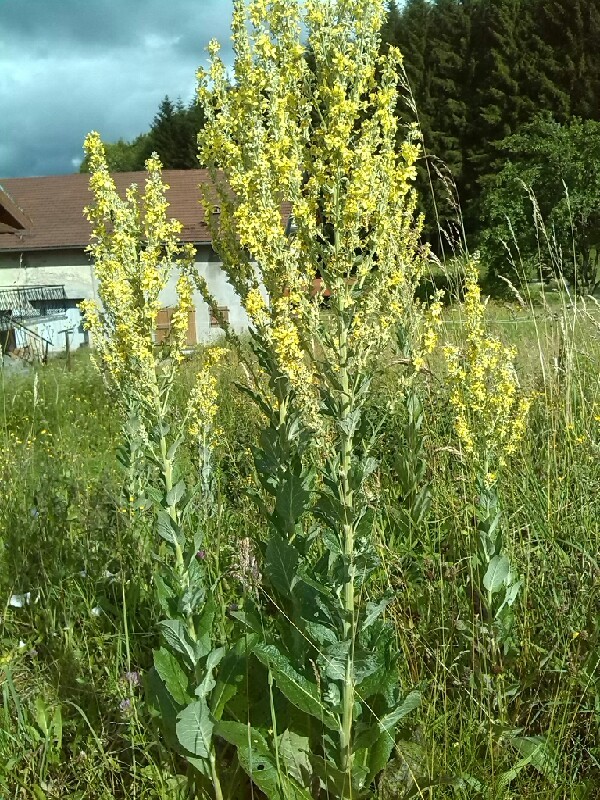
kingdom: Plantae
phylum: Tracheophyta
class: Magnoliopsida
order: Lamiales
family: Scrophulariaceae
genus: Verbascum
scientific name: Verbascum lychnitis
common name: White mullein
